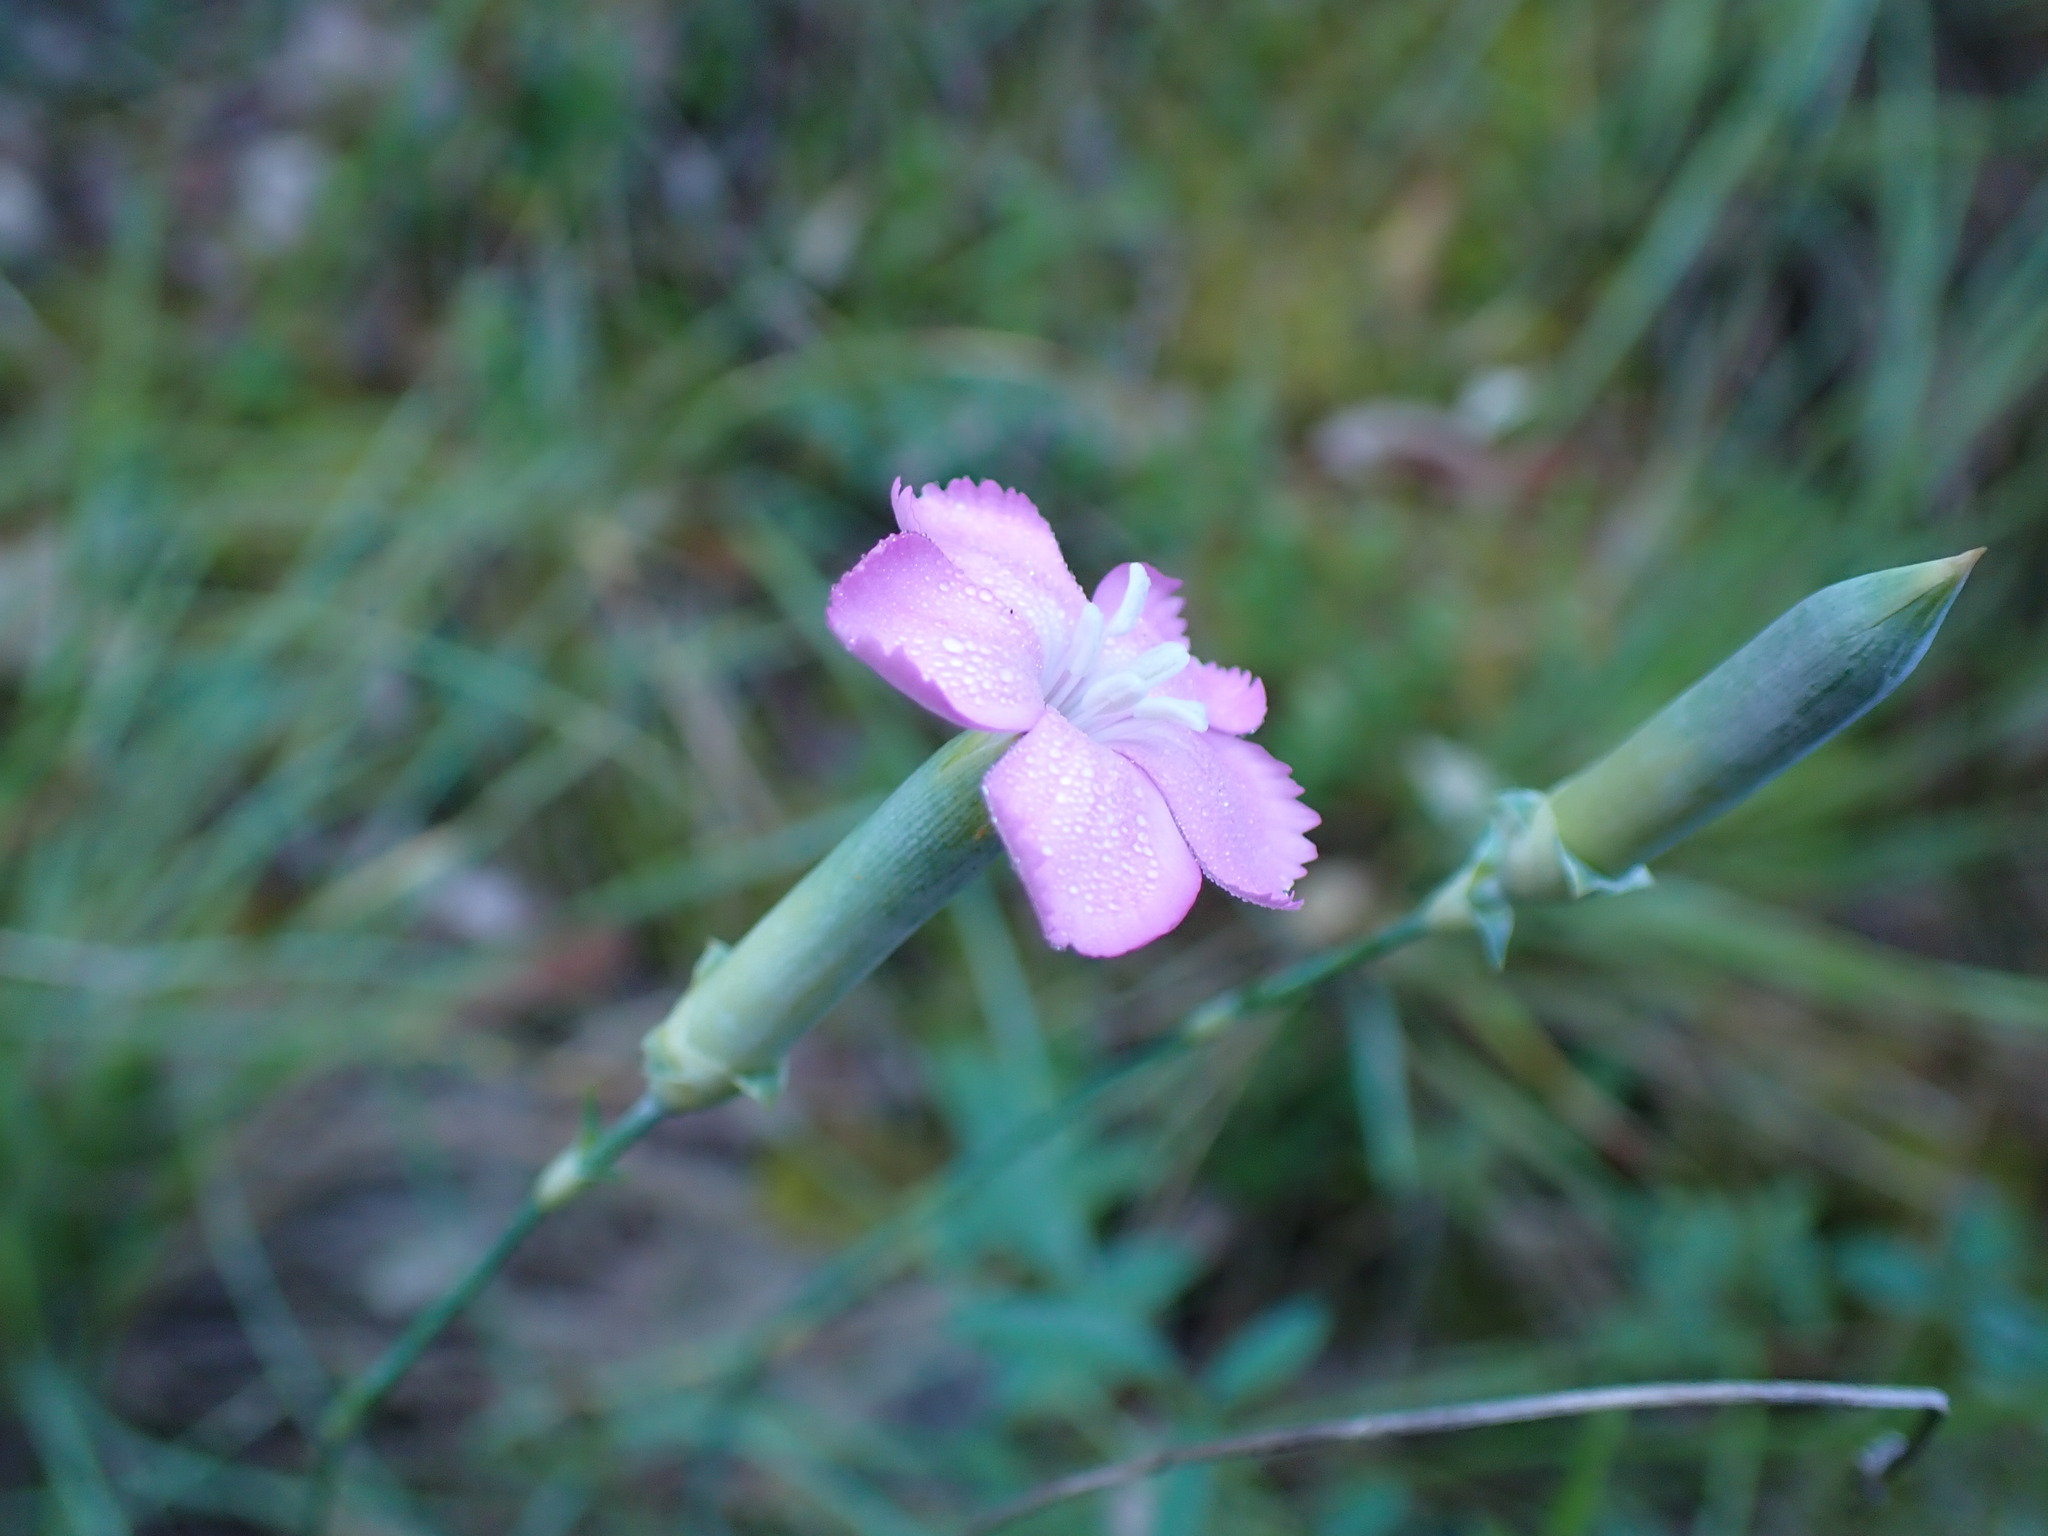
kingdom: Plantae
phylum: Tracheophyta
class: Magnoliopsida
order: Caryophyllales
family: Caryophyllaceae
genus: Dianthus
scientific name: Dianthus virgineus
